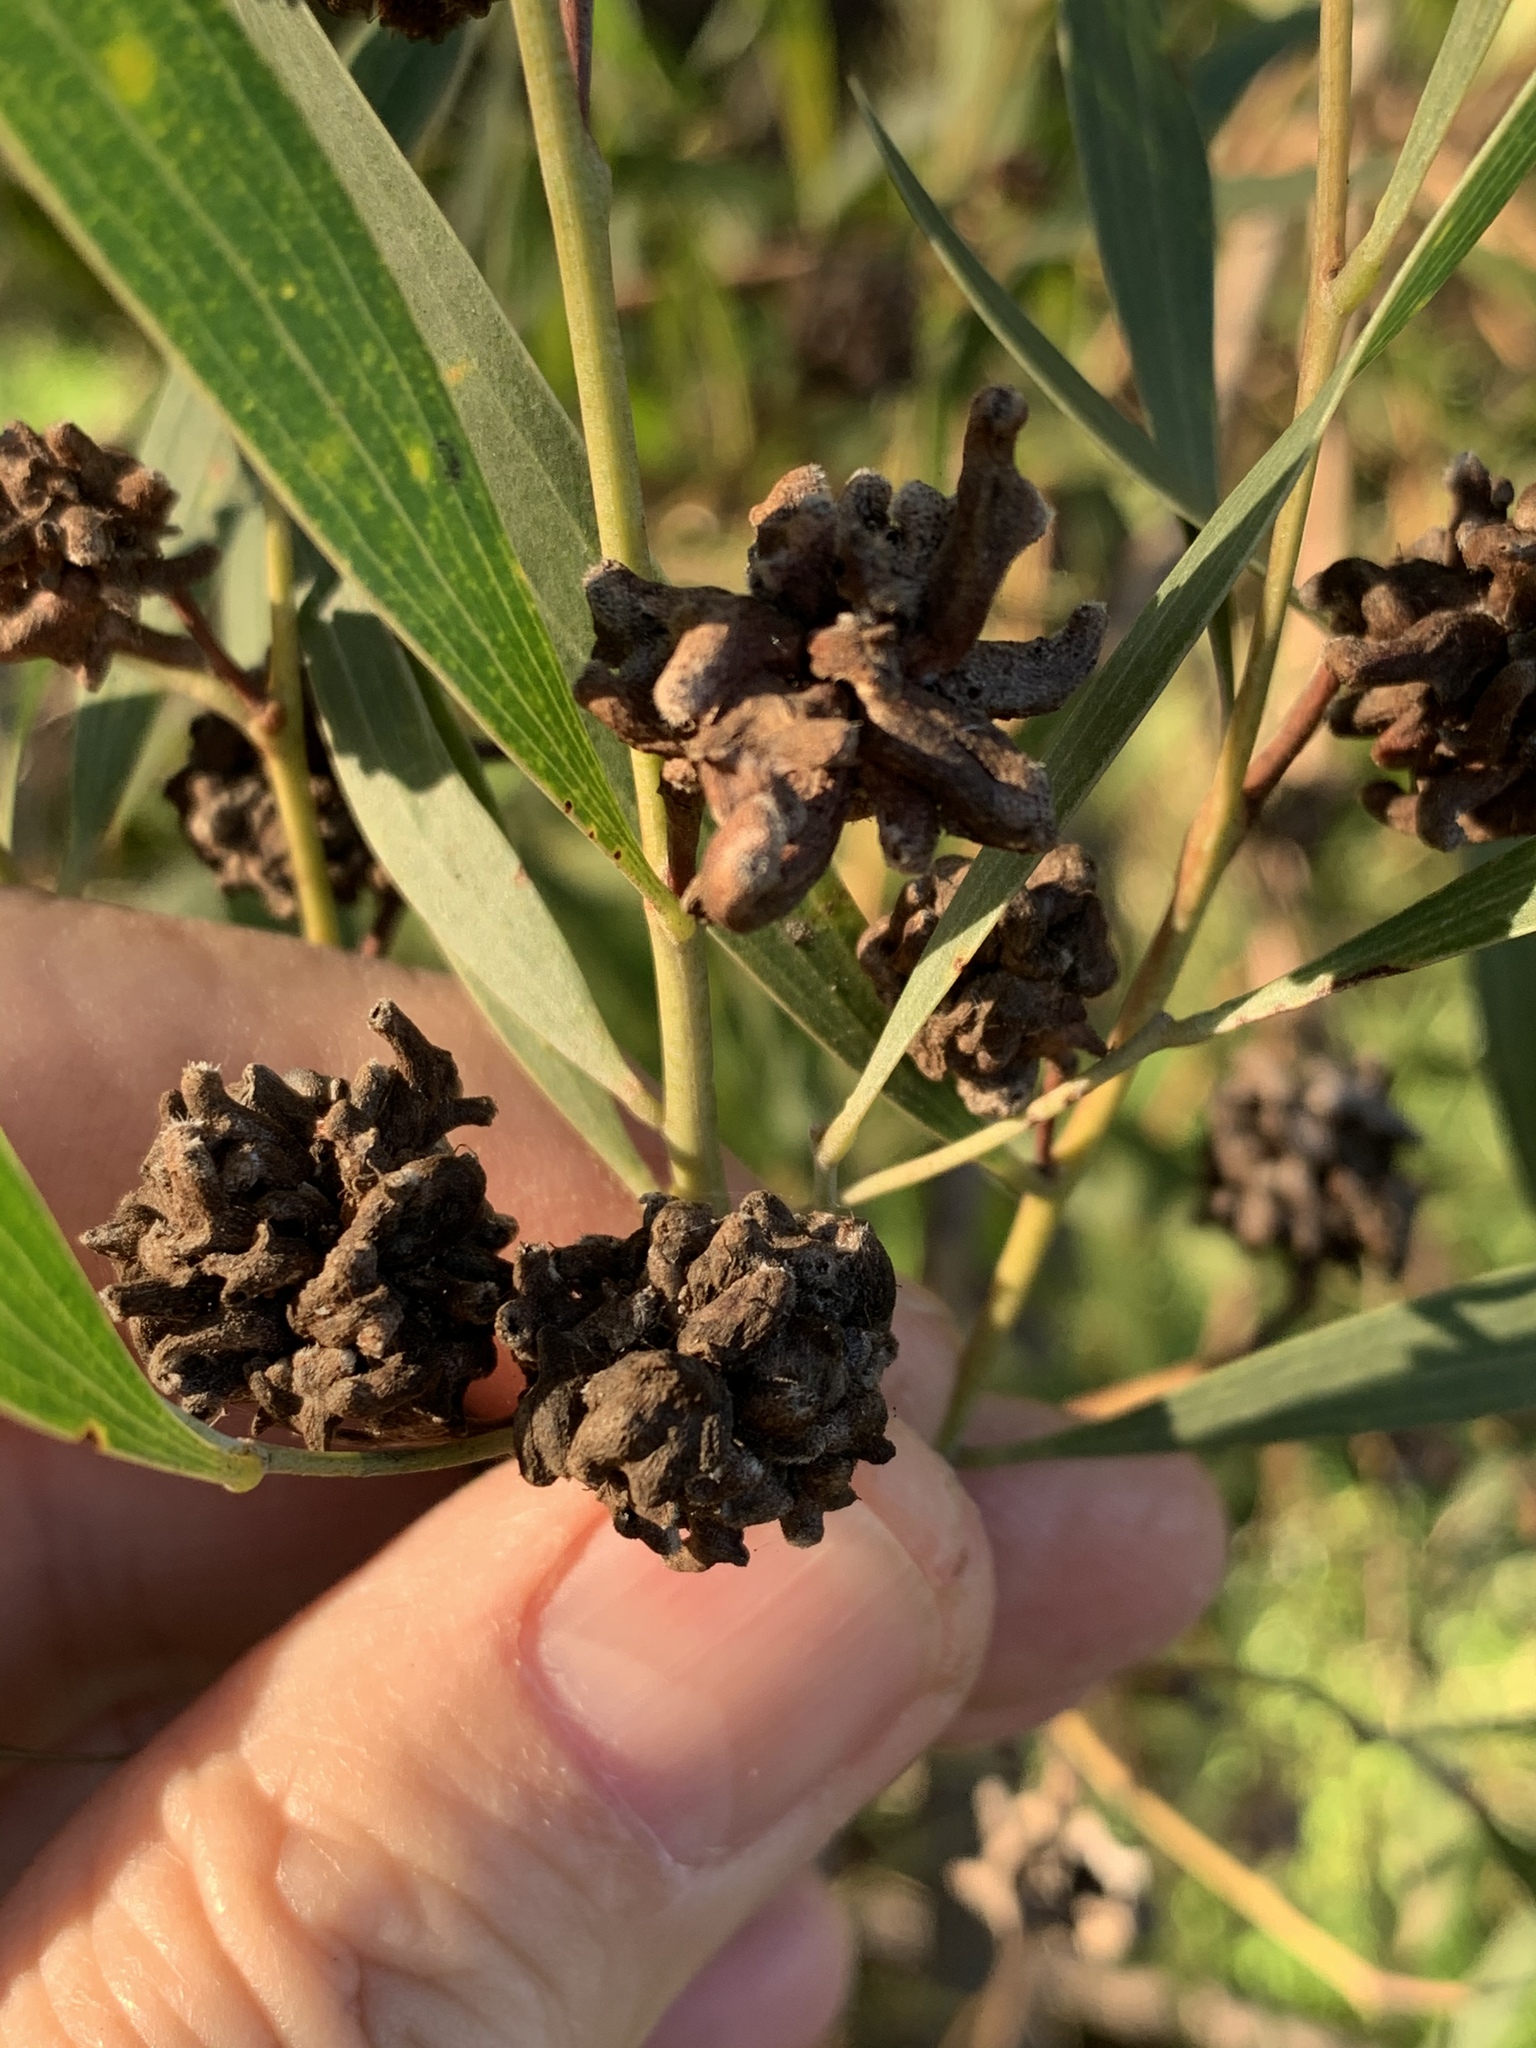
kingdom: Plantae
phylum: Tracheophyta
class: Magnoliopsida
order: Fabales
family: Fabaceae
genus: Acacia
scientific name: Acacia cyclops
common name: Coastal wattle
